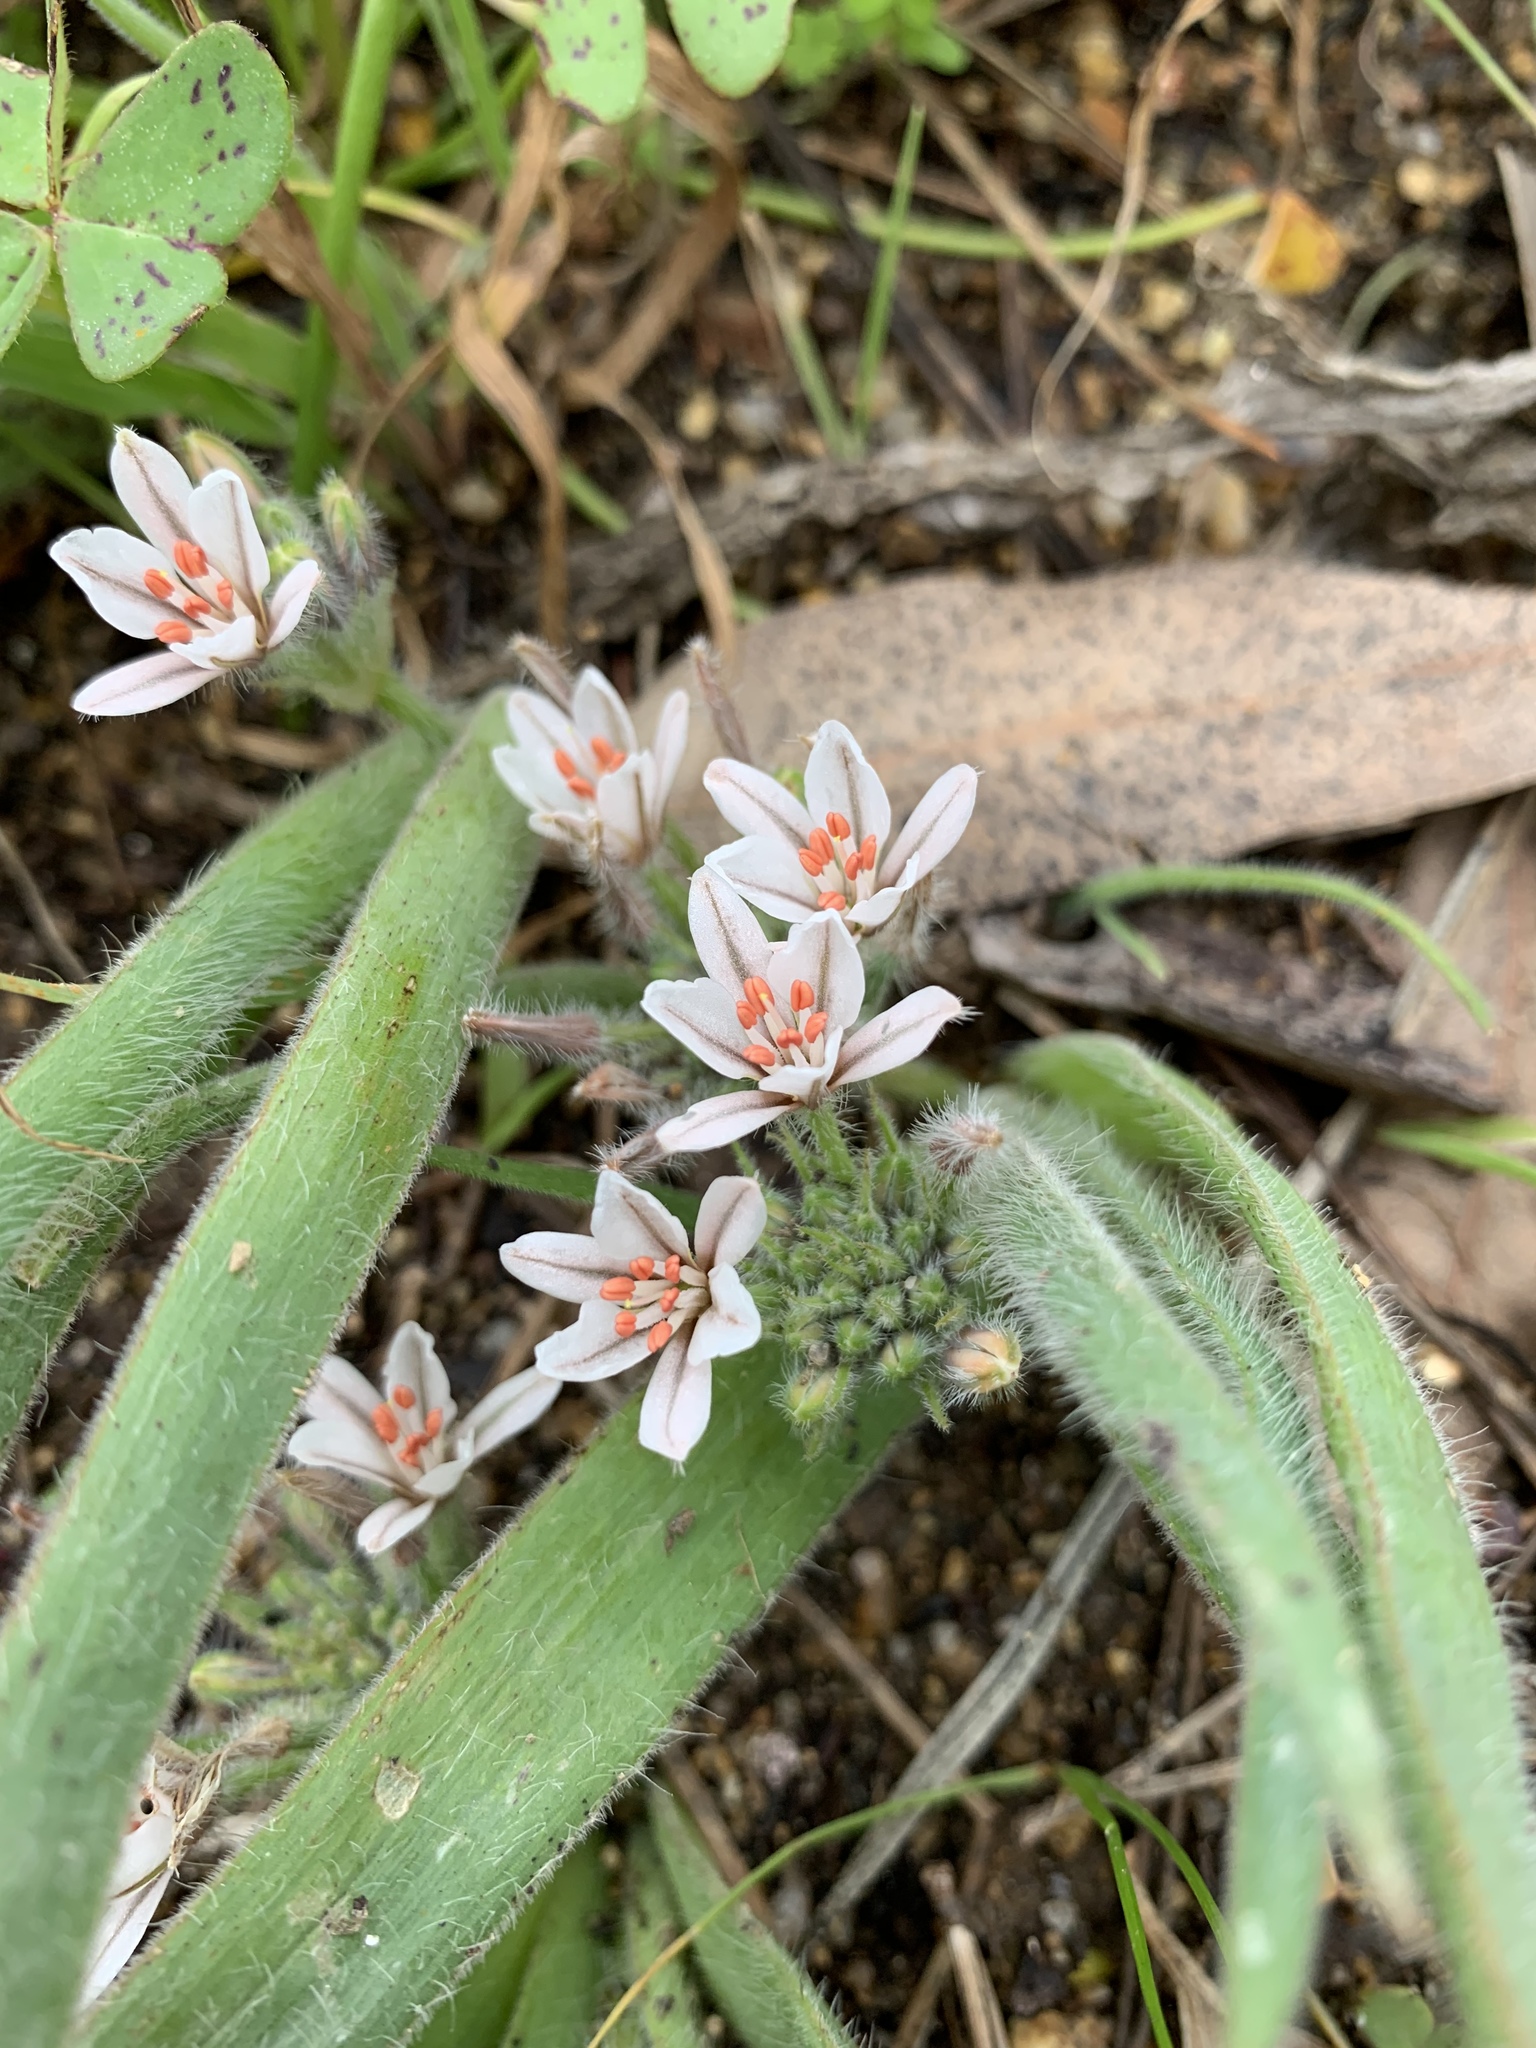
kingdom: Plantae
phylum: Tracheophyta
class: Liliopsida
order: Asparagales
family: Asphodelaceae
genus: Trachyandra
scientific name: Trachyandra hispida
